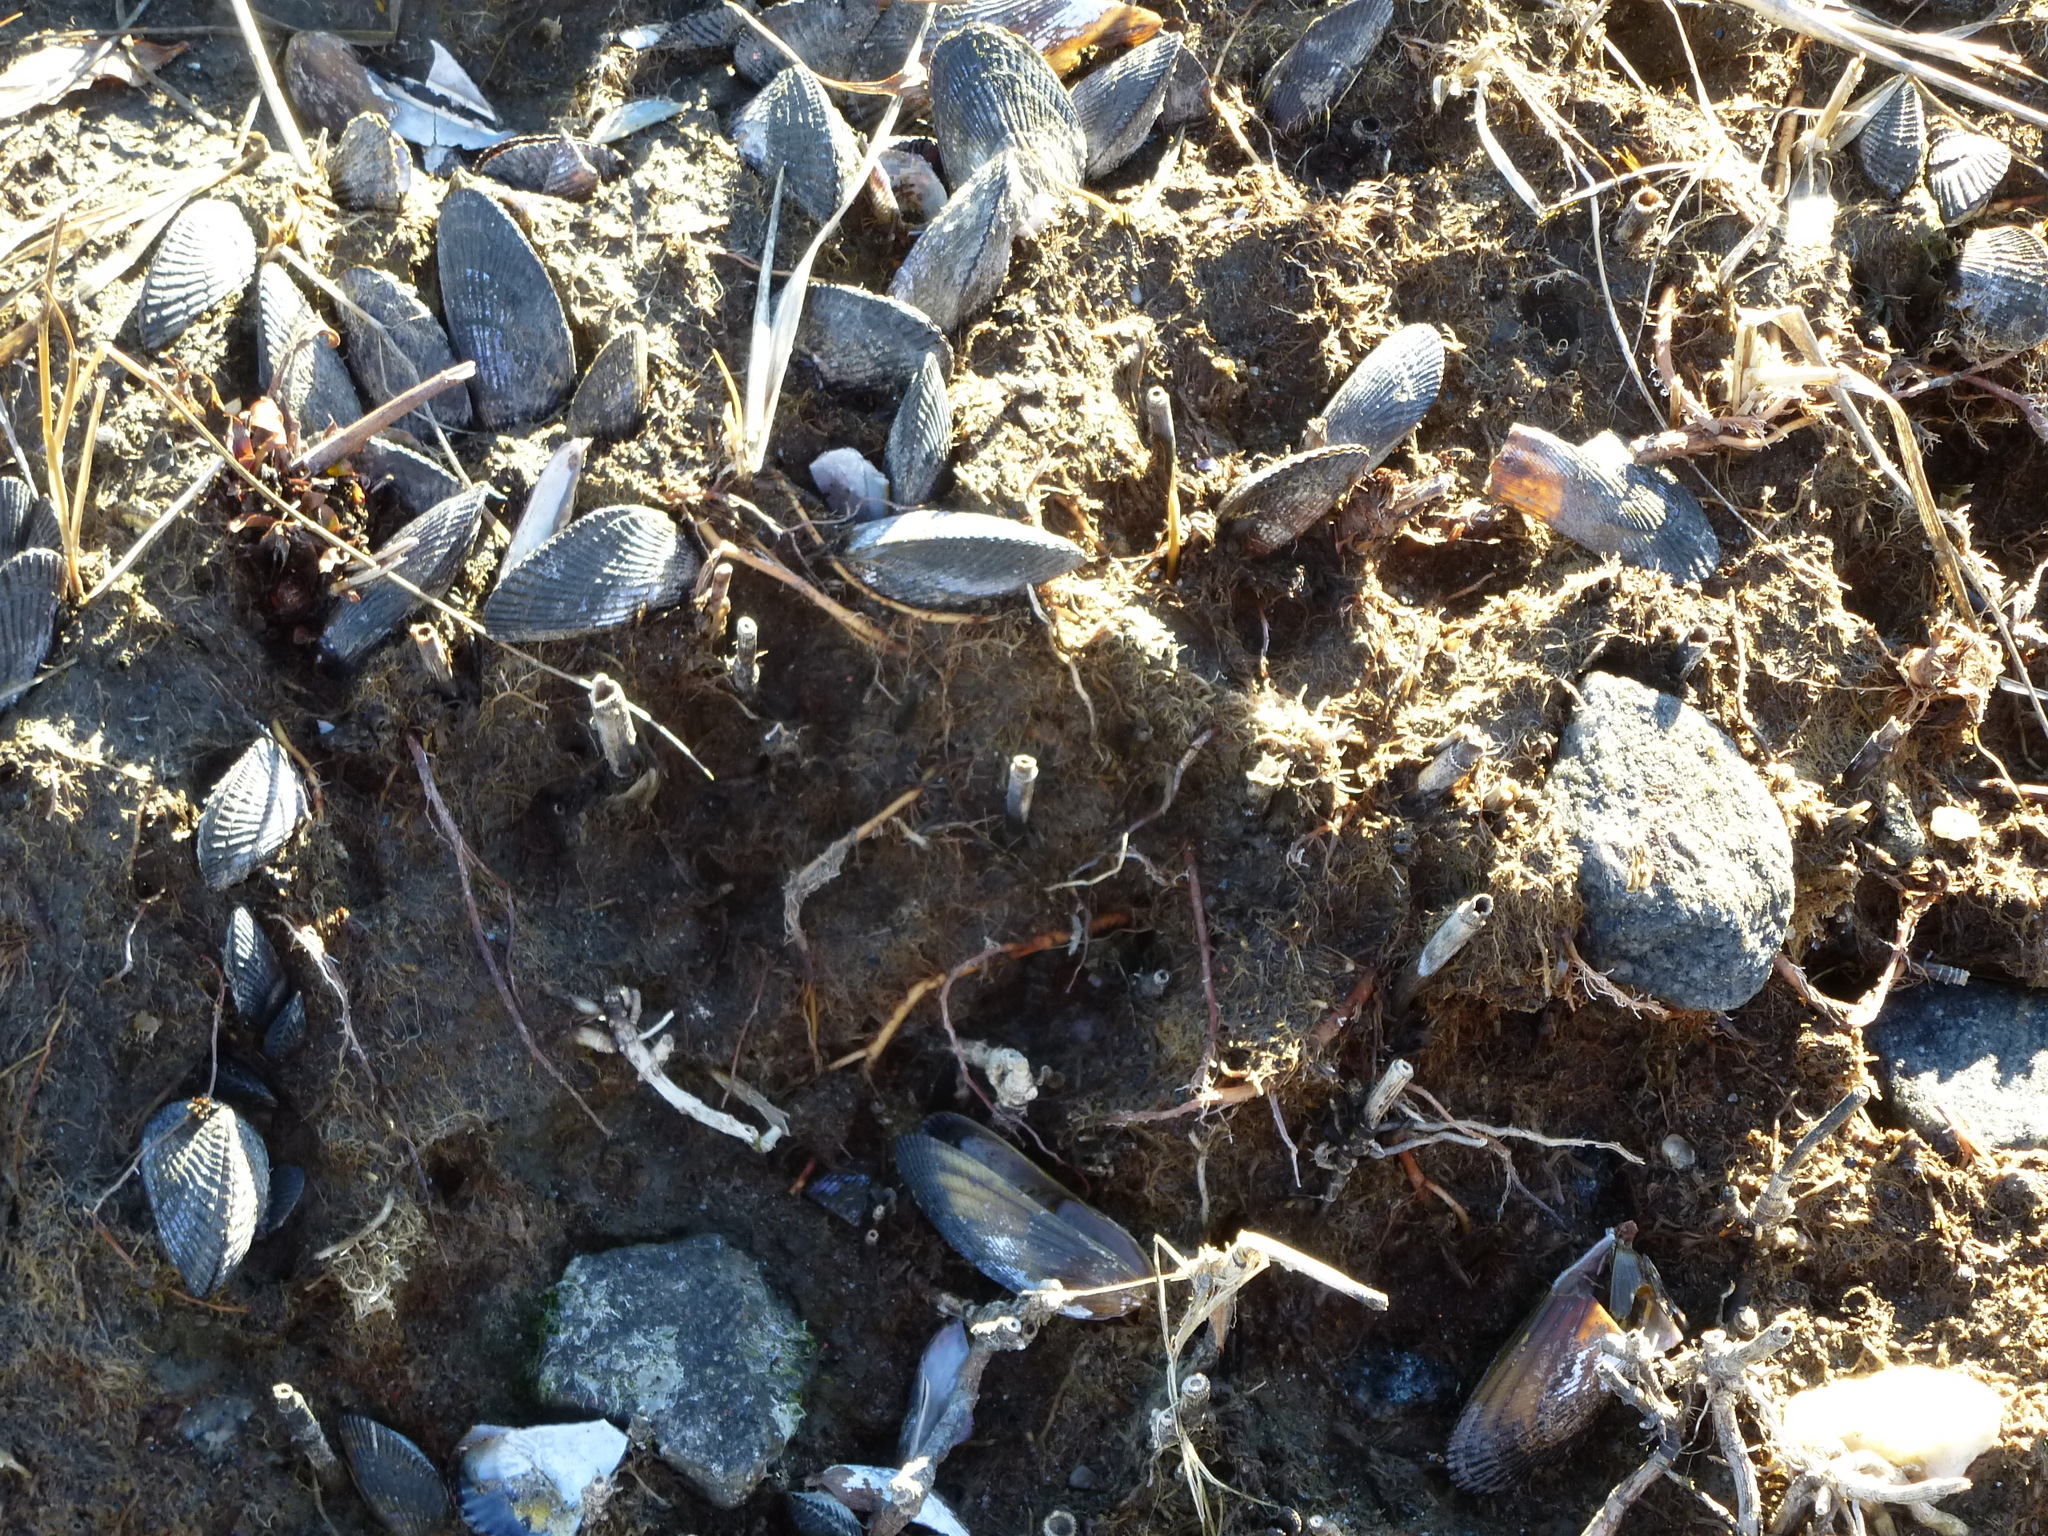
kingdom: Animalia
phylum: Mollusca
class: Bivalvia
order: Mytilida
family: Mytilidae
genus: Geukensia
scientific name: Geukensia demissa
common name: Ribbed mussel
